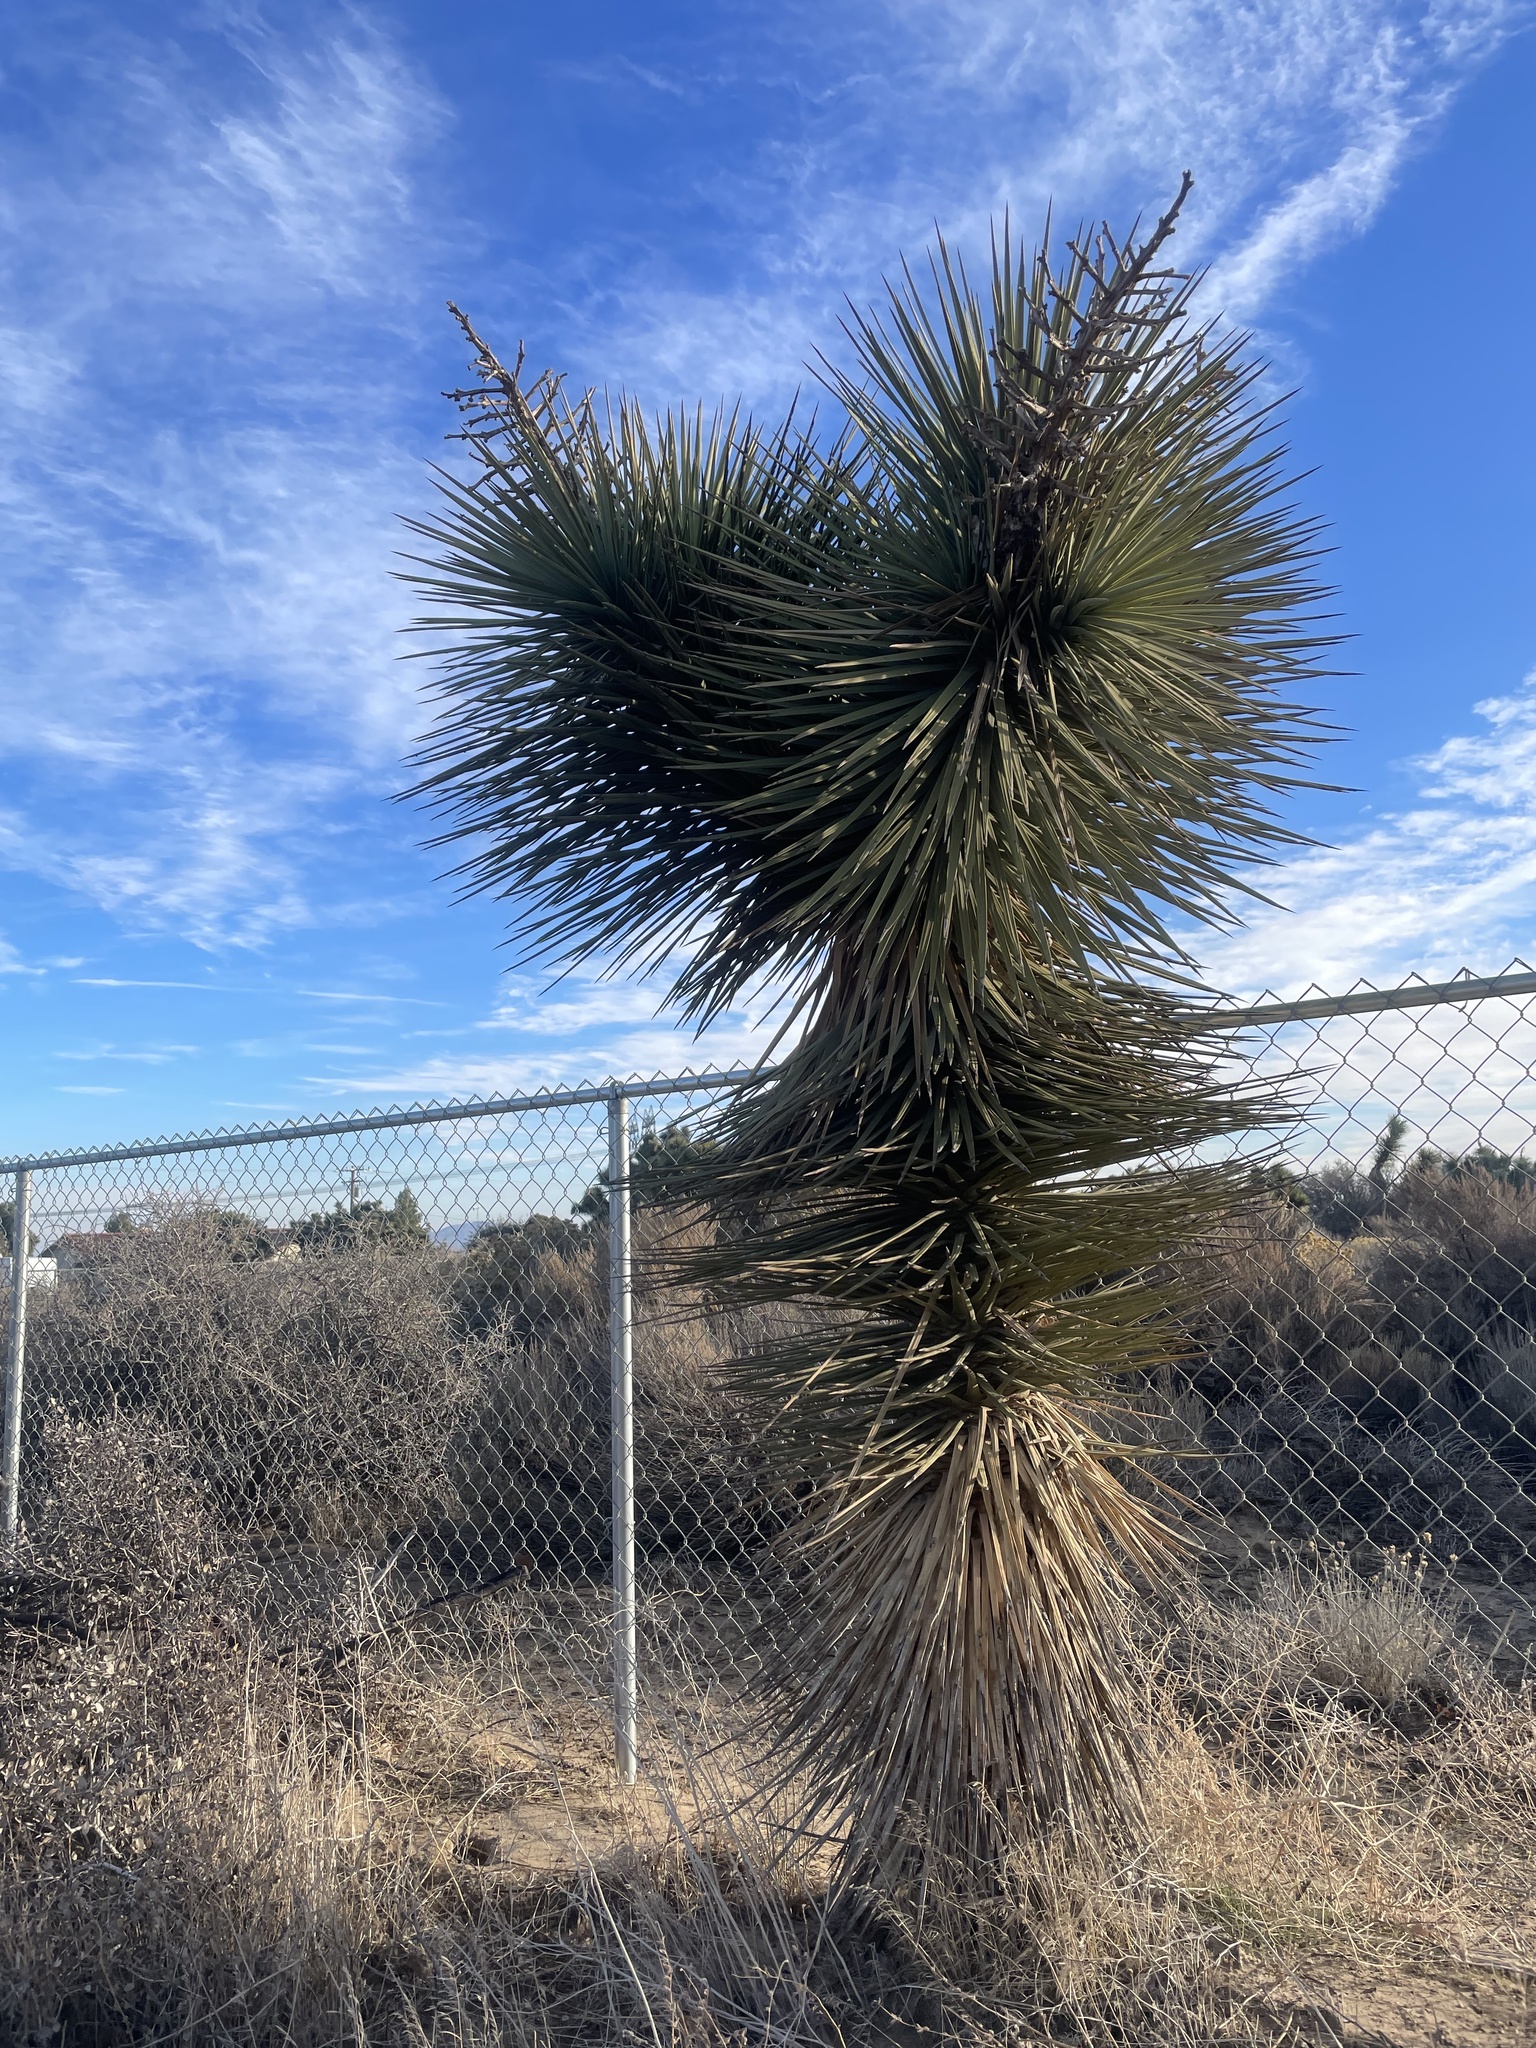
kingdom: Plantae
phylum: Tracheophyta
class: Liliopsida
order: Asparagales
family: Asparagaceae
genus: Yucca
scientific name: Yucca brevifolia
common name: Joshua tree
